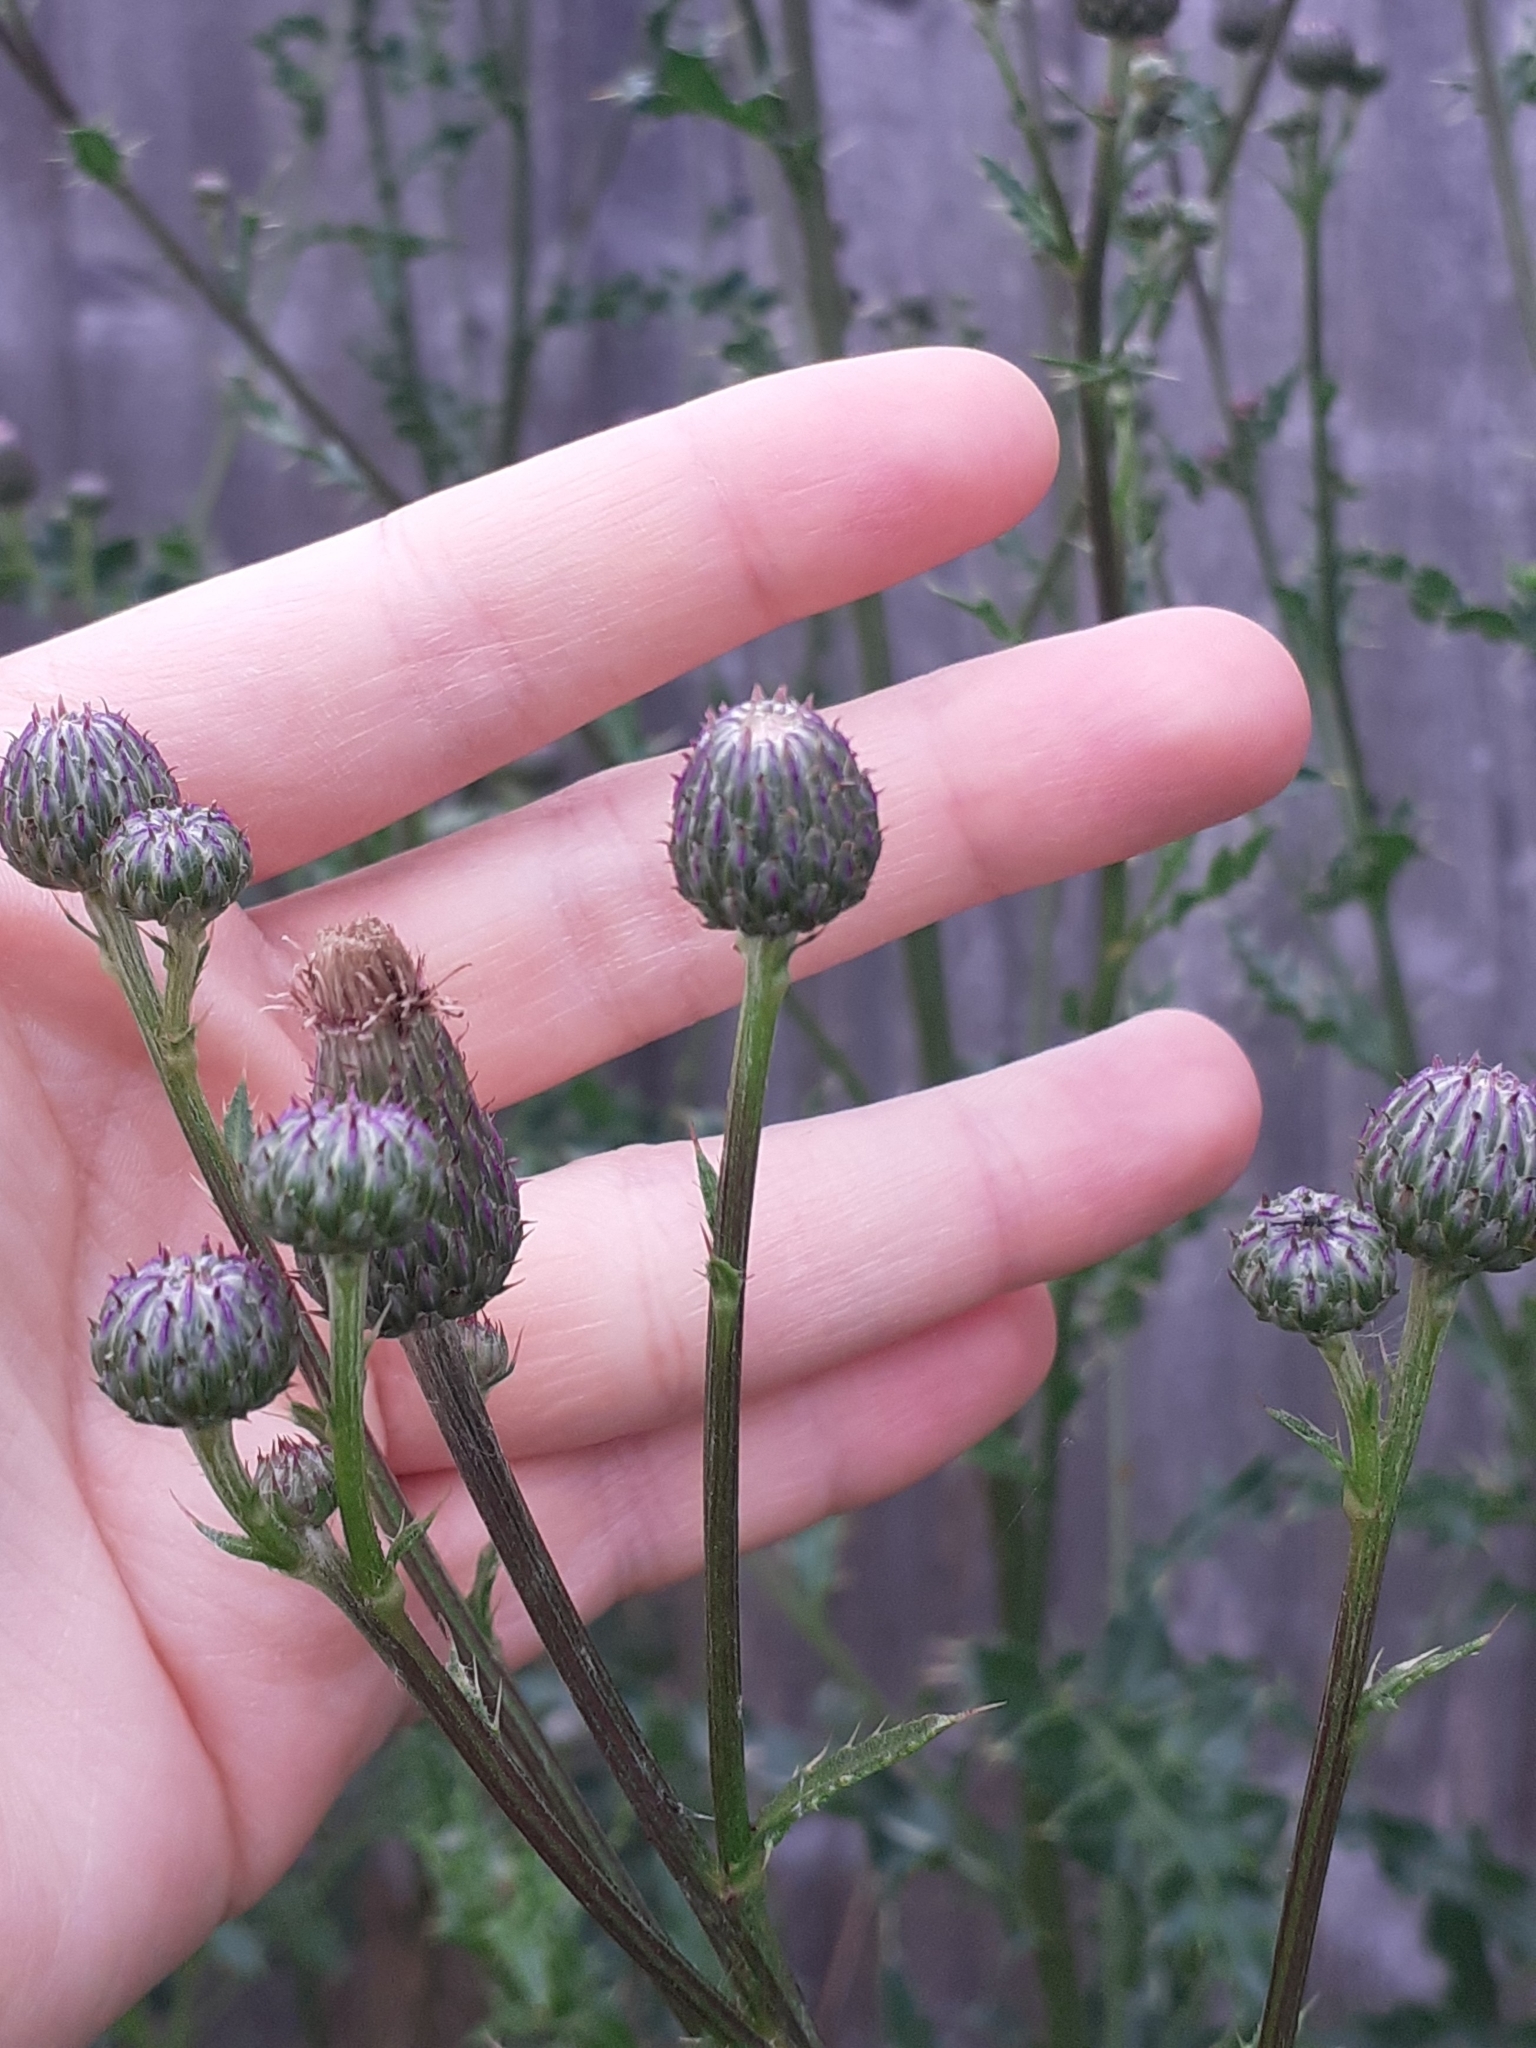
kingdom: Plantae
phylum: Tracheophyta
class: Magnoliopsida
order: Asterales
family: Asteraceae
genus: Cirsium
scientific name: Cirsium arvense
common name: Creeping thistle
